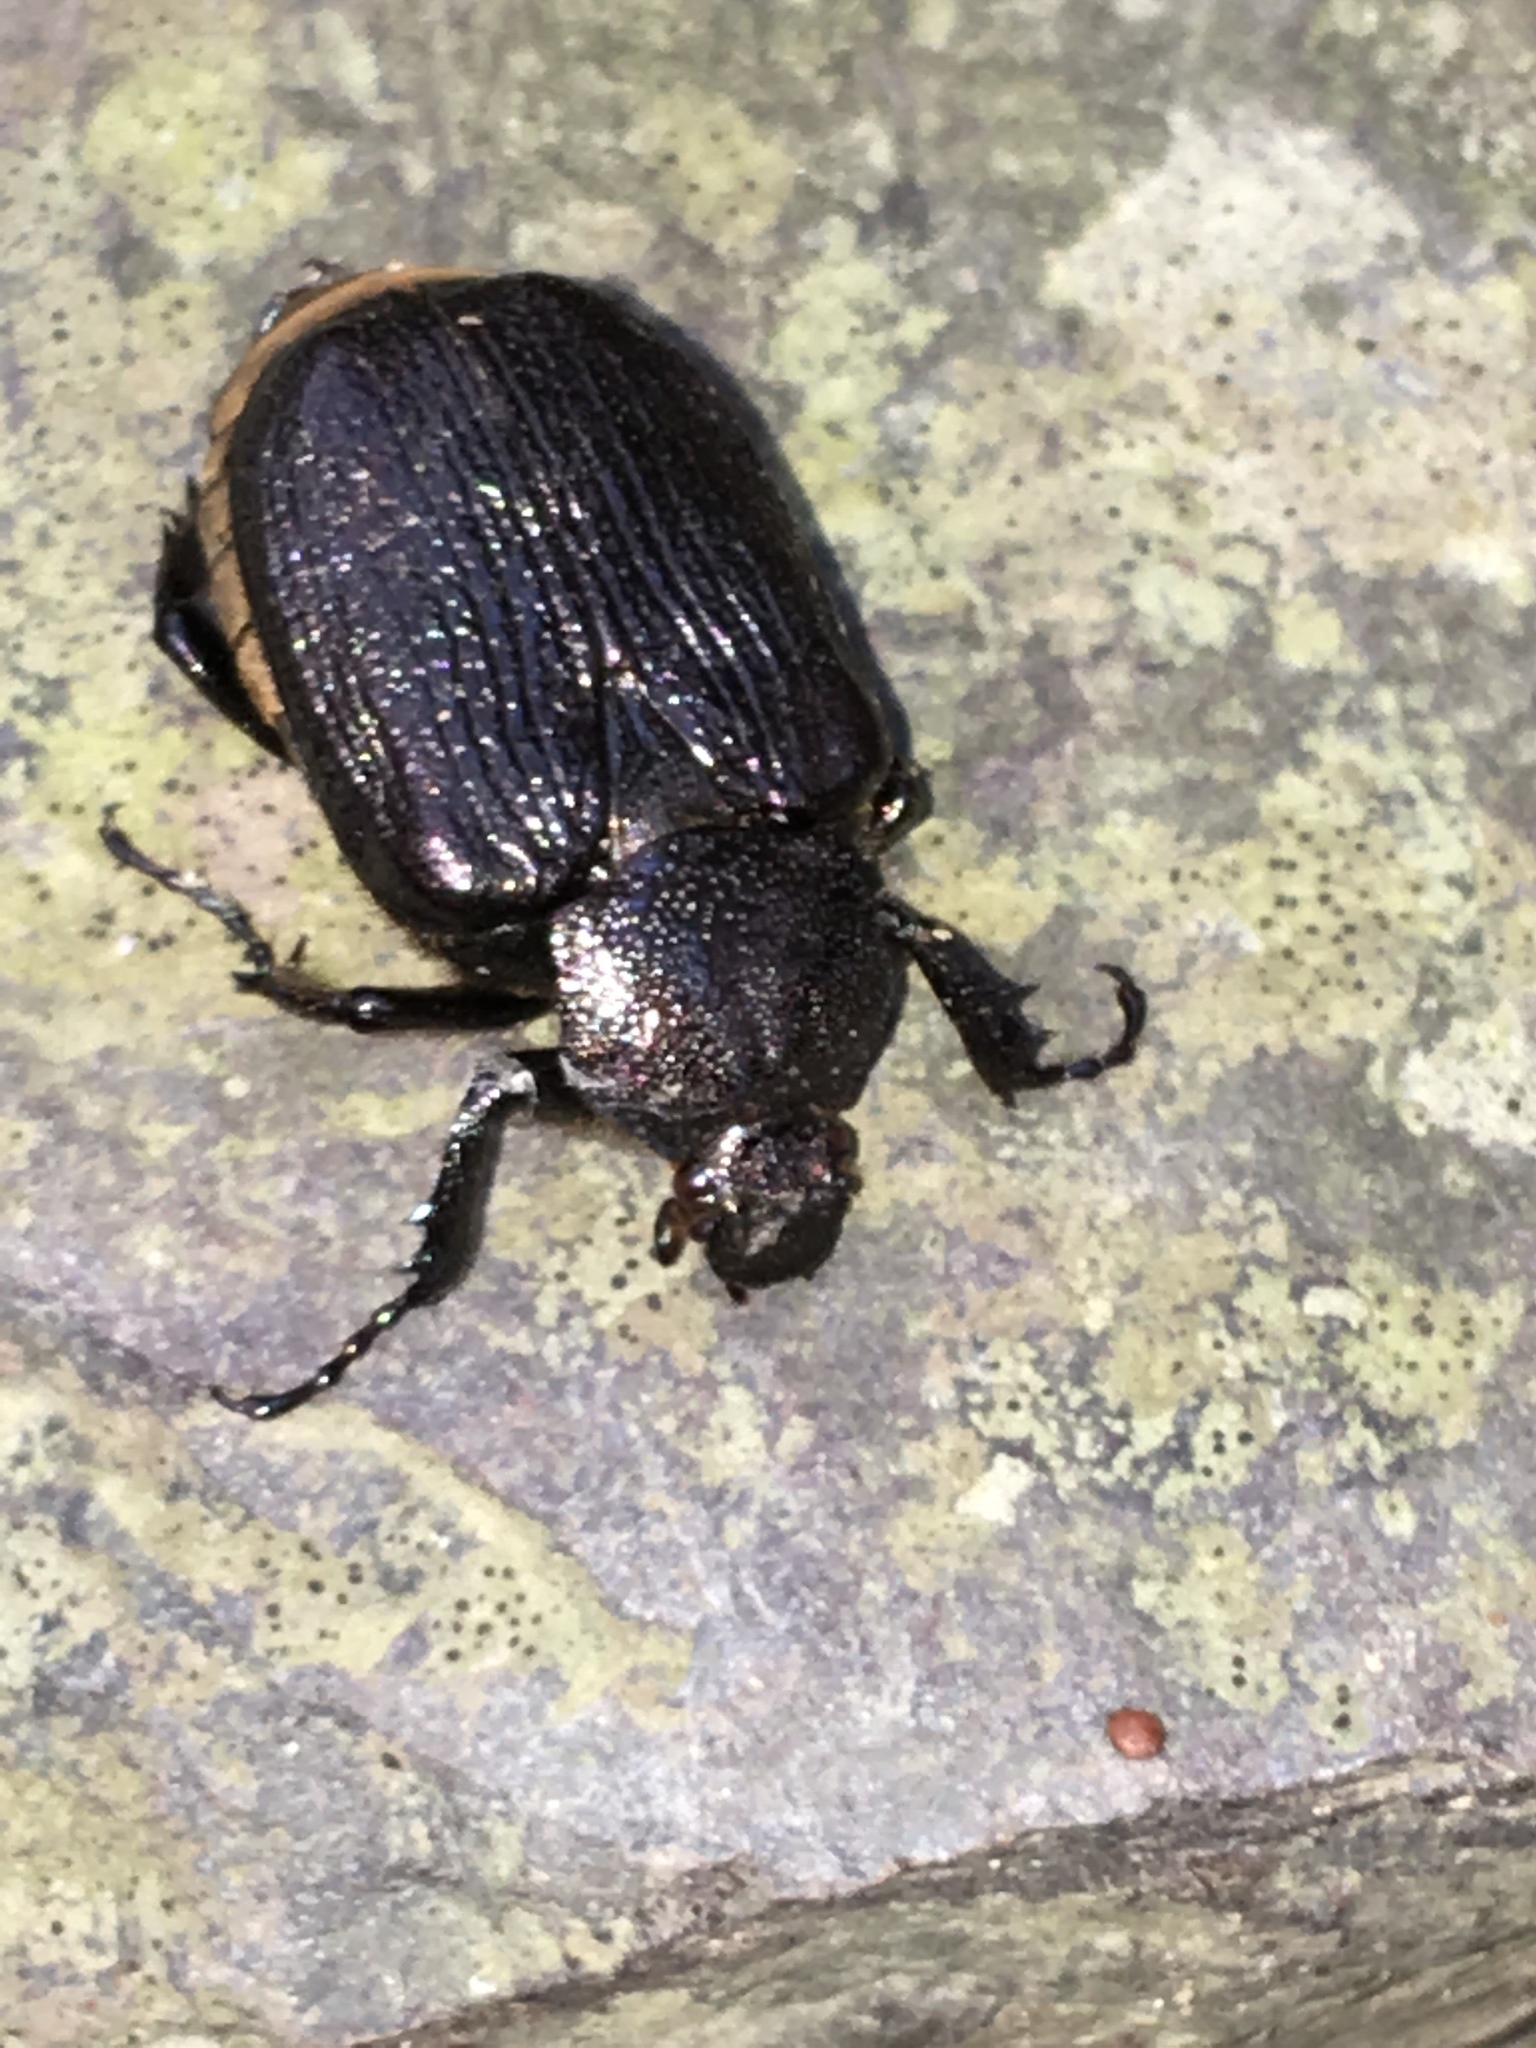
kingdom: Animalia
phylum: Arthropoda
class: Insecta
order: Coleoptera
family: Scarabaeidae
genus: Osmoderma
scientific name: Osmoderma scabra
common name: Rough hermit beetle
